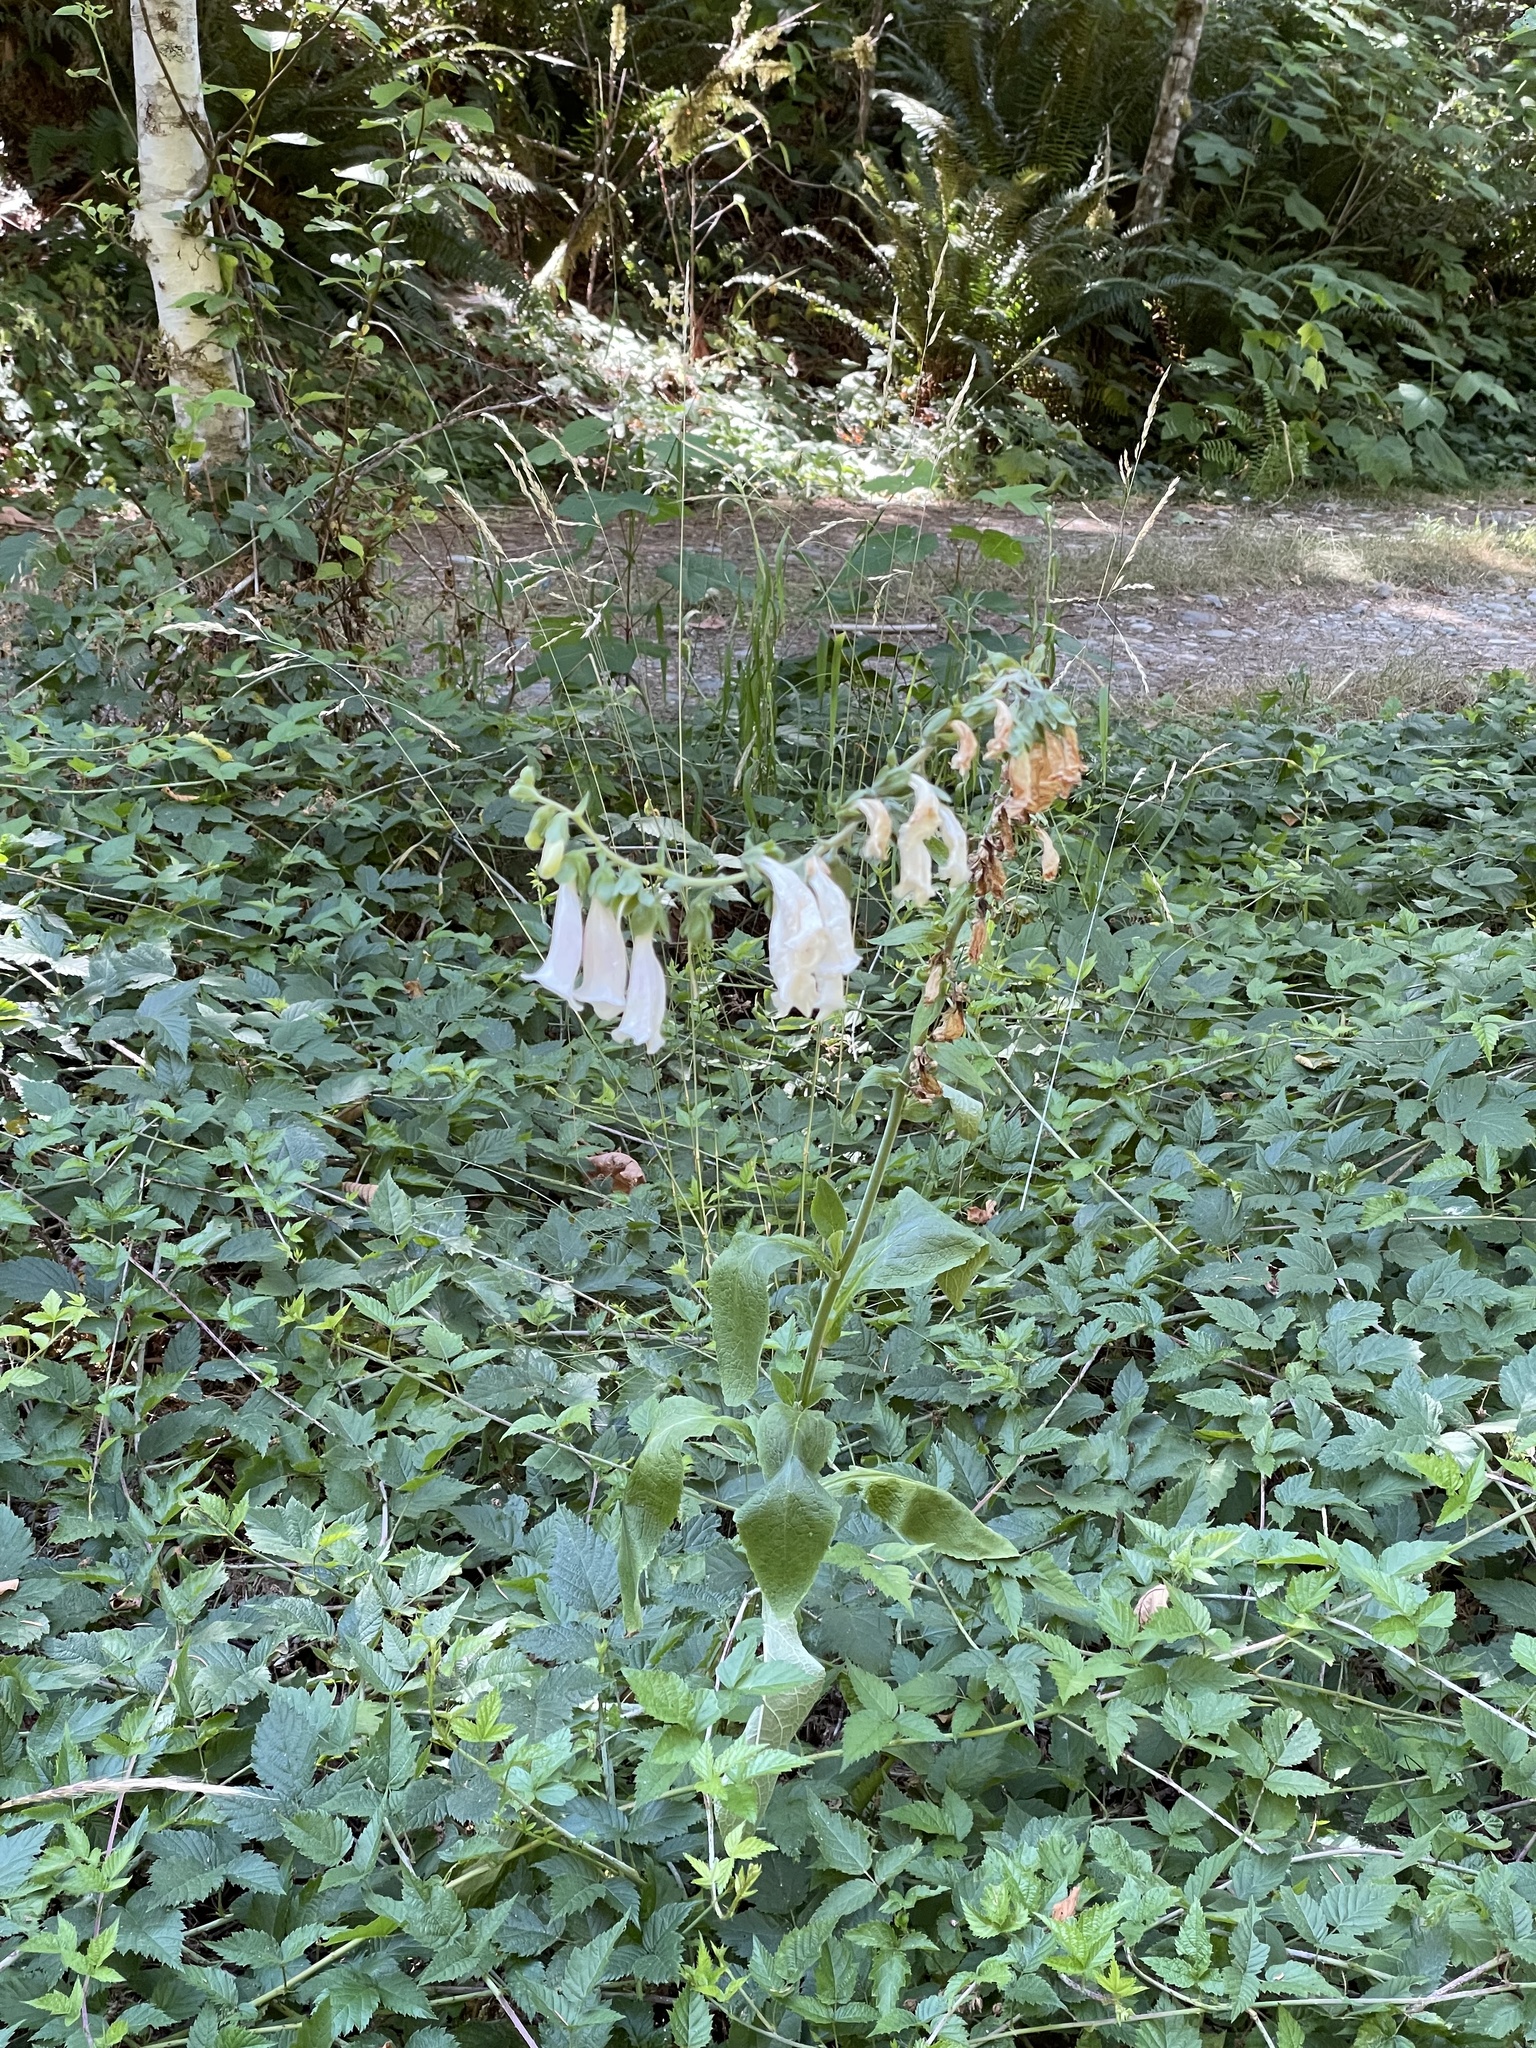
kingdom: Plantae
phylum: Tracheophyta
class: Magnoliopsida
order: Lamiales
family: Plantaginaceae
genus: Digitalis
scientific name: Digitalis purpurea
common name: Foxglove
